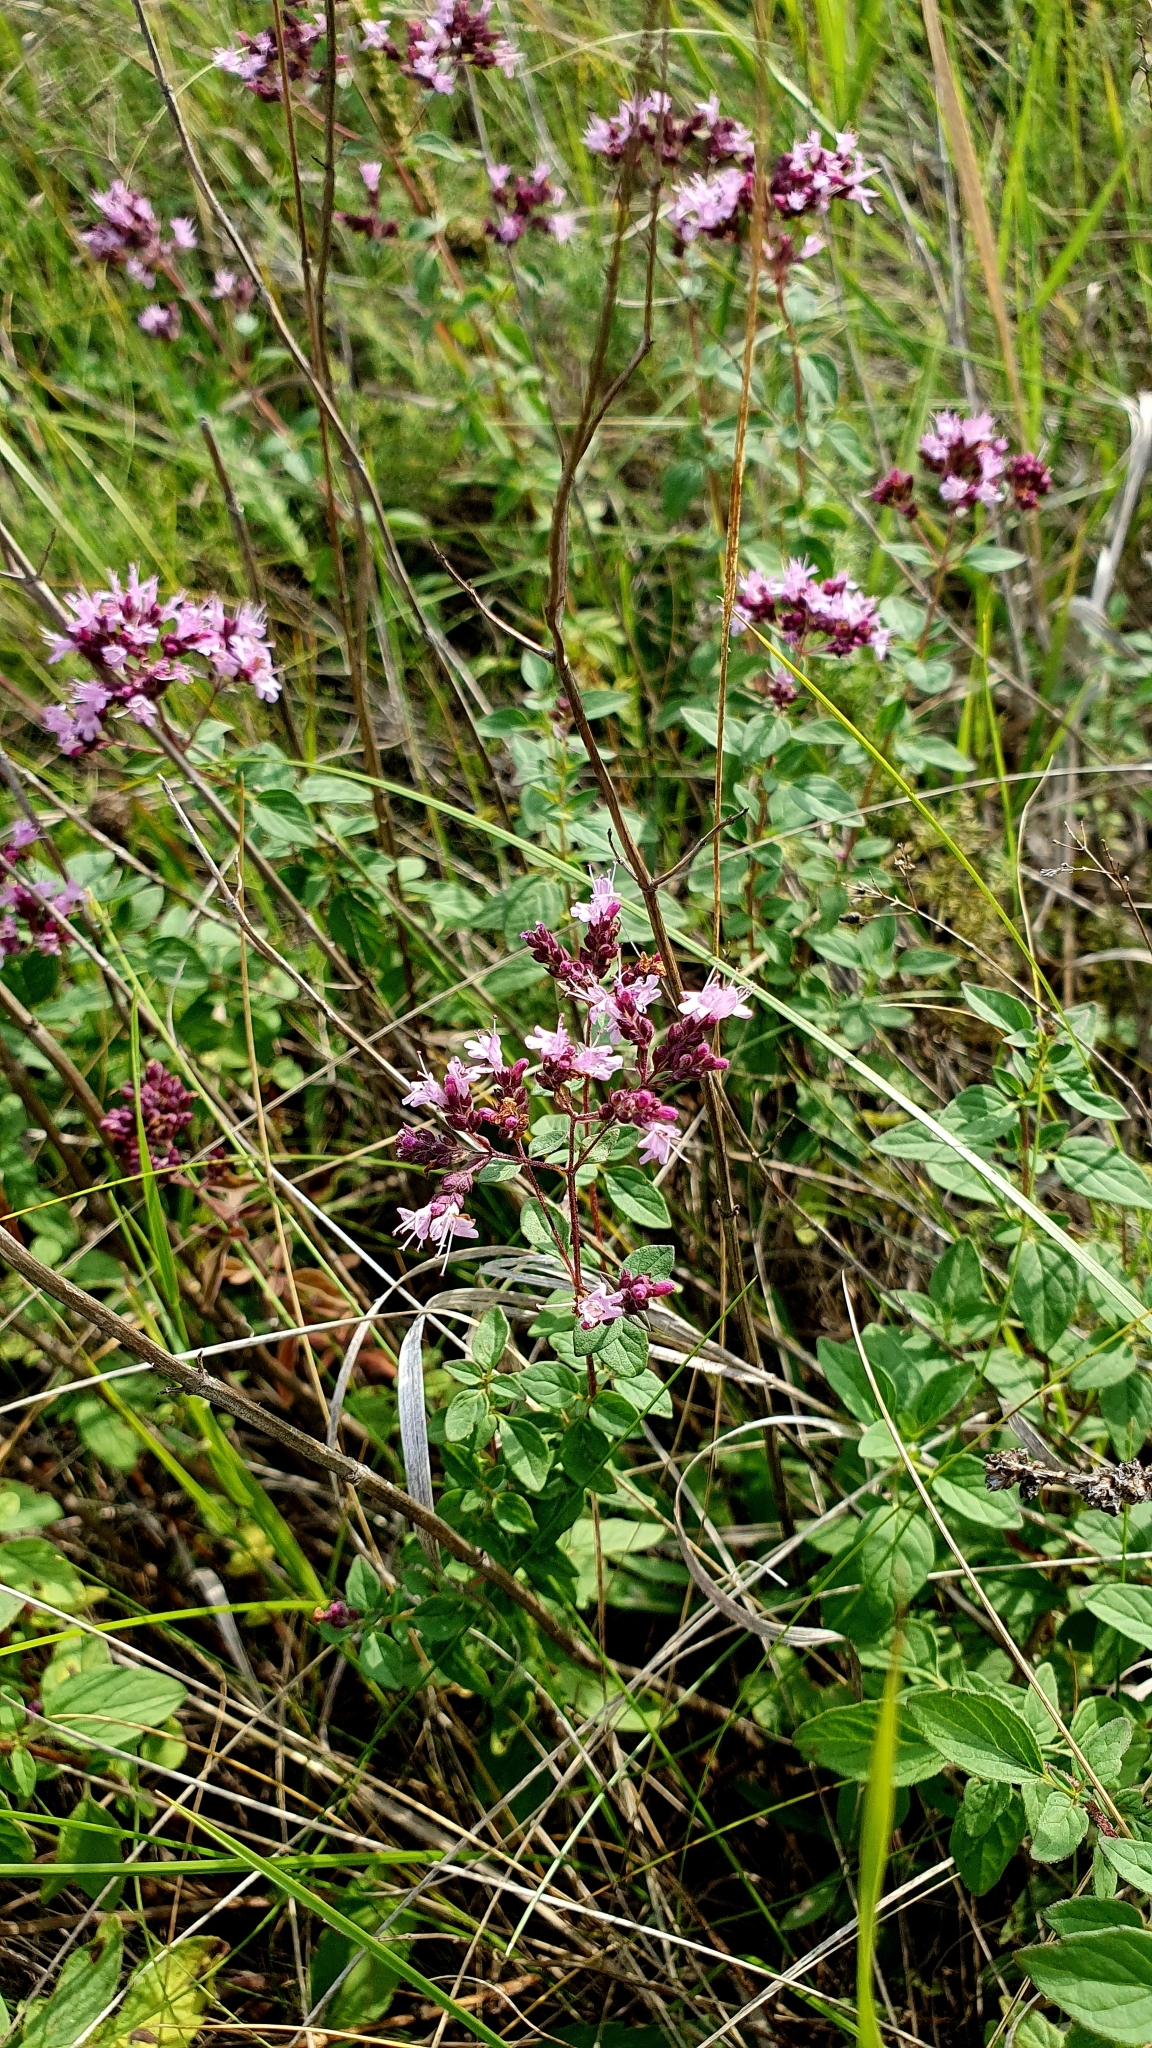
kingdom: Plantae
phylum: Tracheophyta
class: Magnoliopsida
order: Lamiales
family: Lamiaceae
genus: Origanum
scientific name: Origanum vulgare
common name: Wild marjoram
